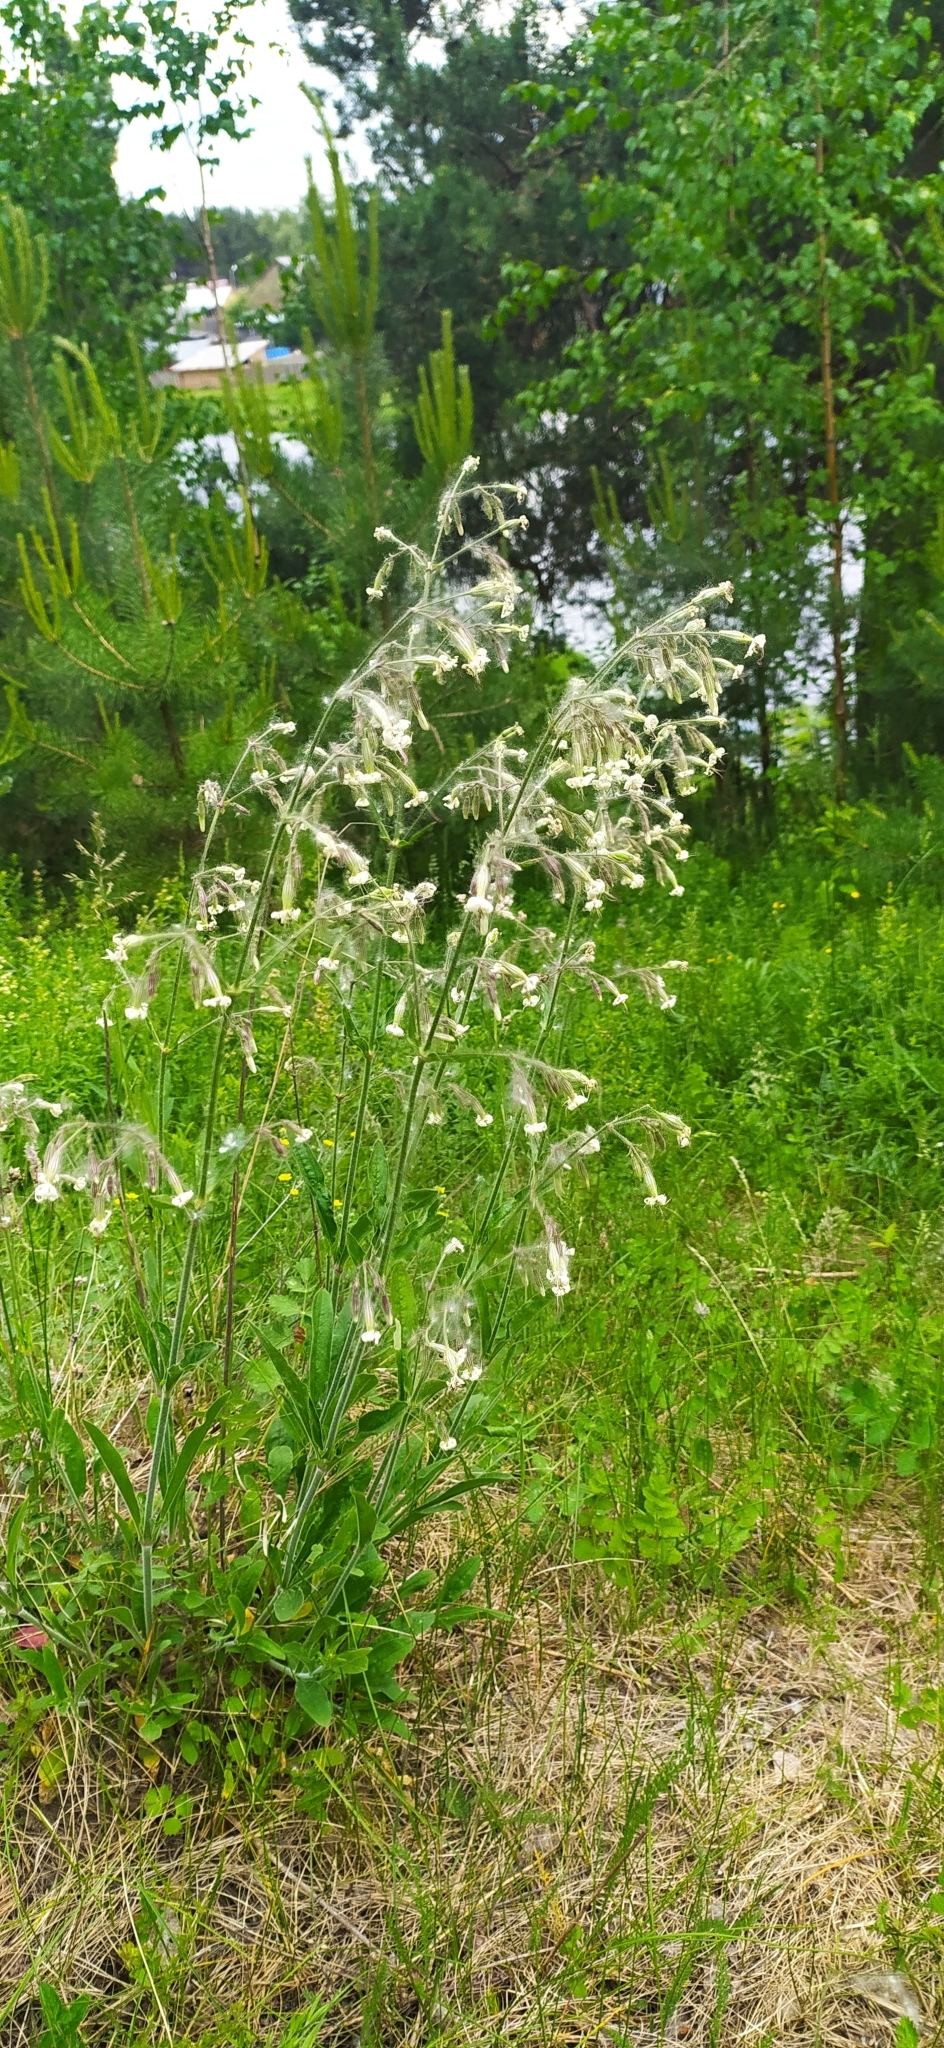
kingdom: Plantae
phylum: Tracheophyta
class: Magnoliopsida
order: Caryophyllales
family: Caryophyllaceae
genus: Silene
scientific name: Silene nutans
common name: Nottingham catchfly
